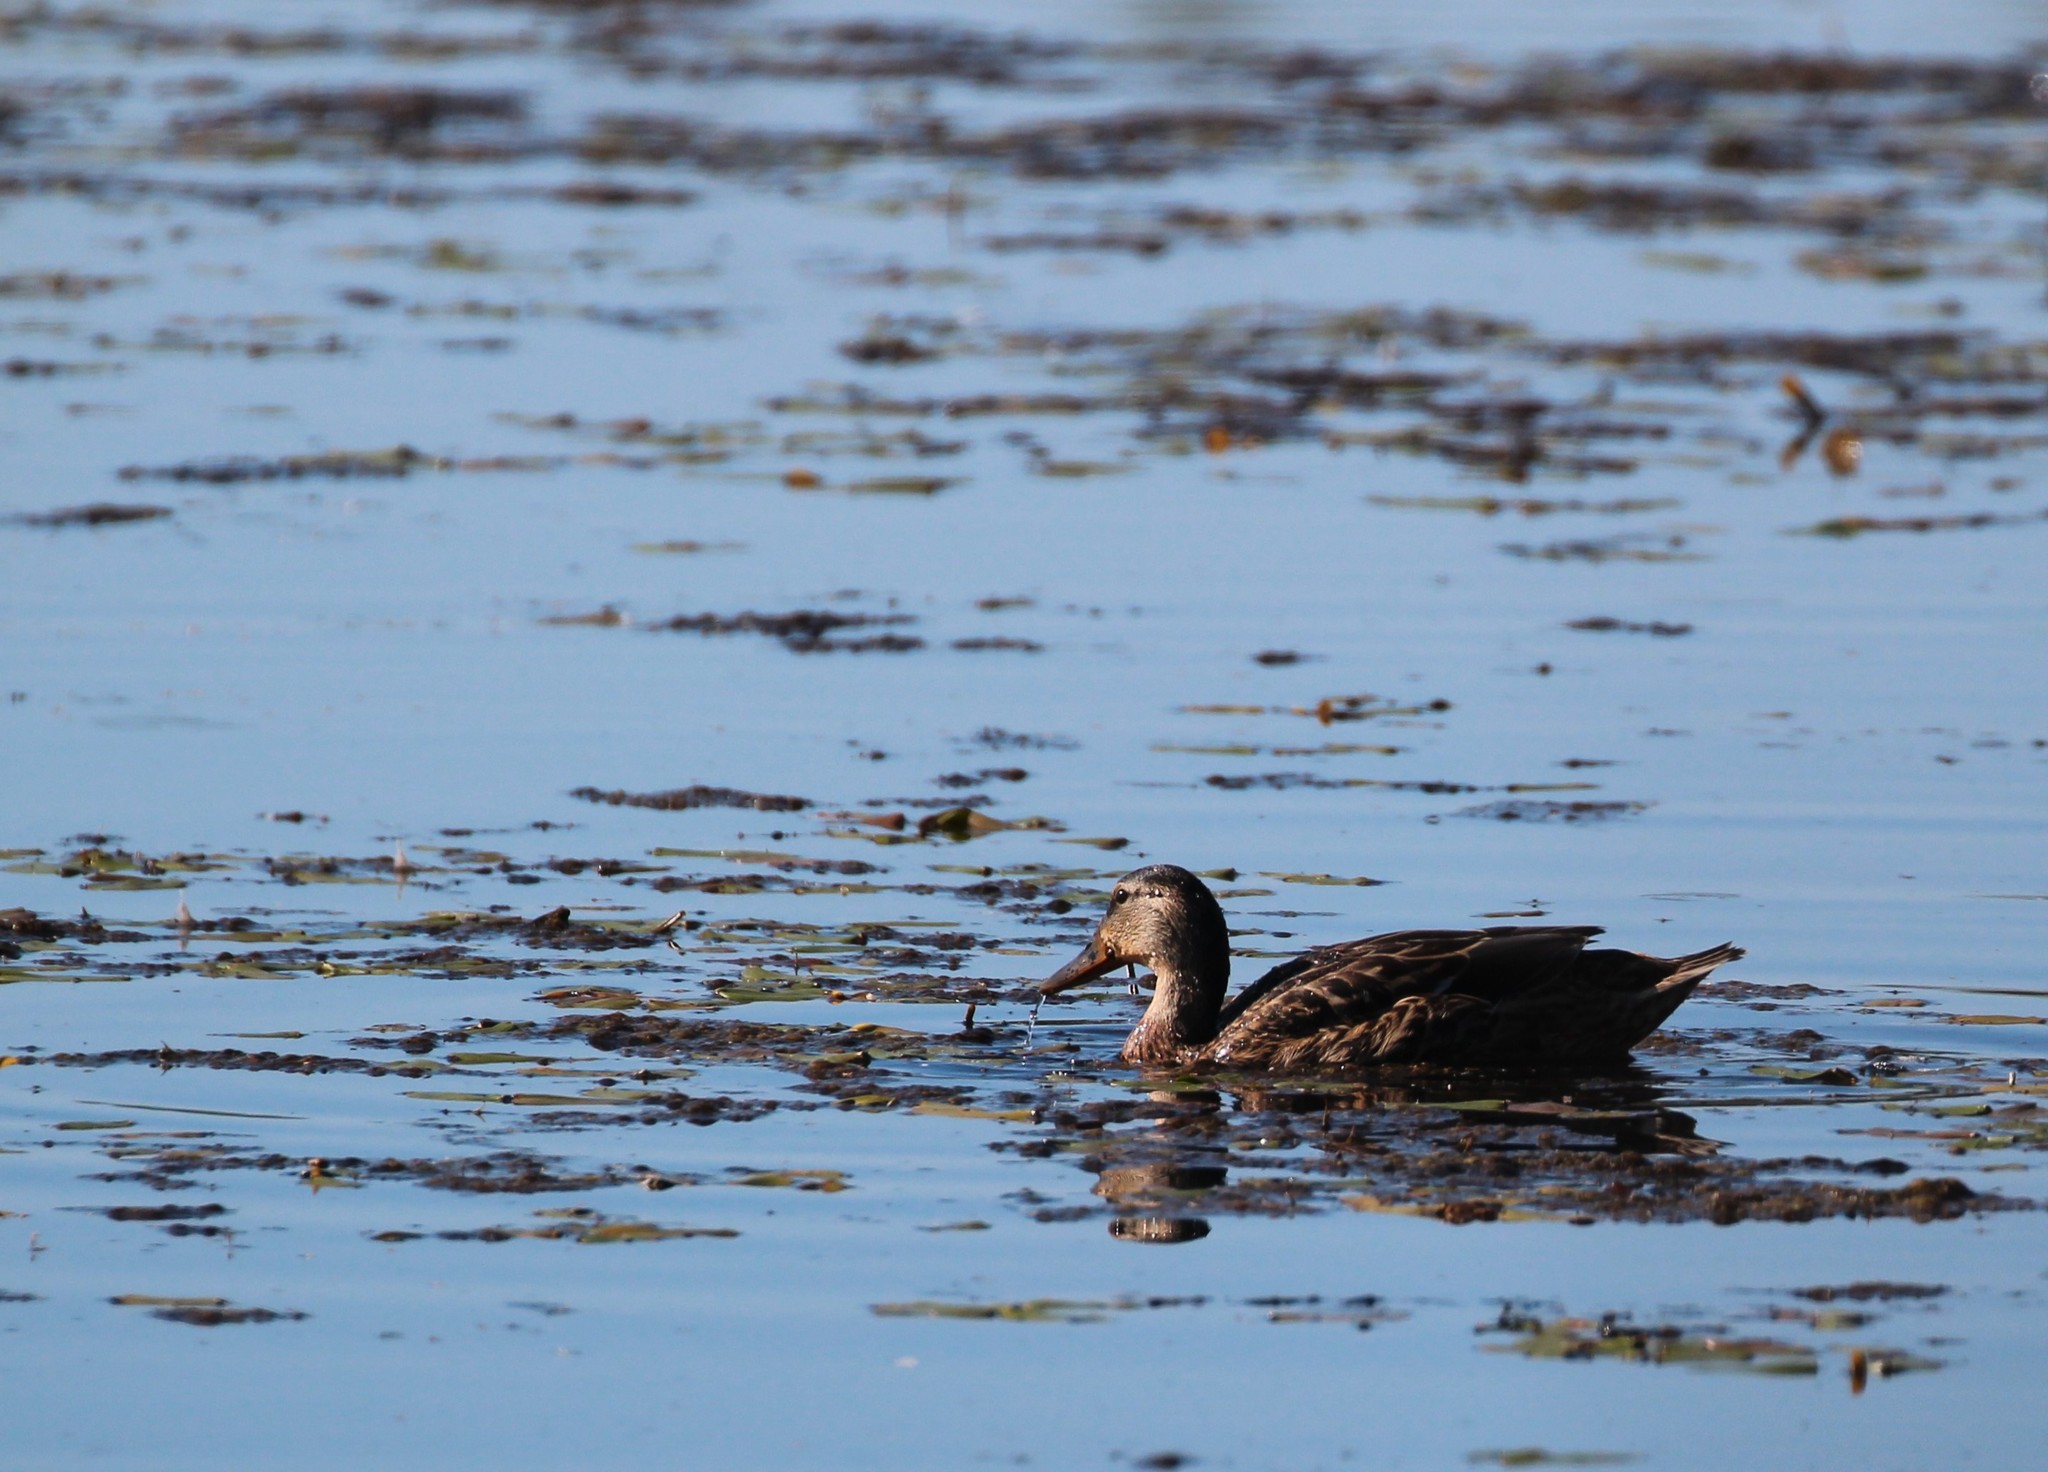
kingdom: Animalia
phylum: Chordata
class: Aves
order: Anseriformes
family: Anatidae
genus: Anas
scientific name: Anas platyrhynchos
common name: Mallard
